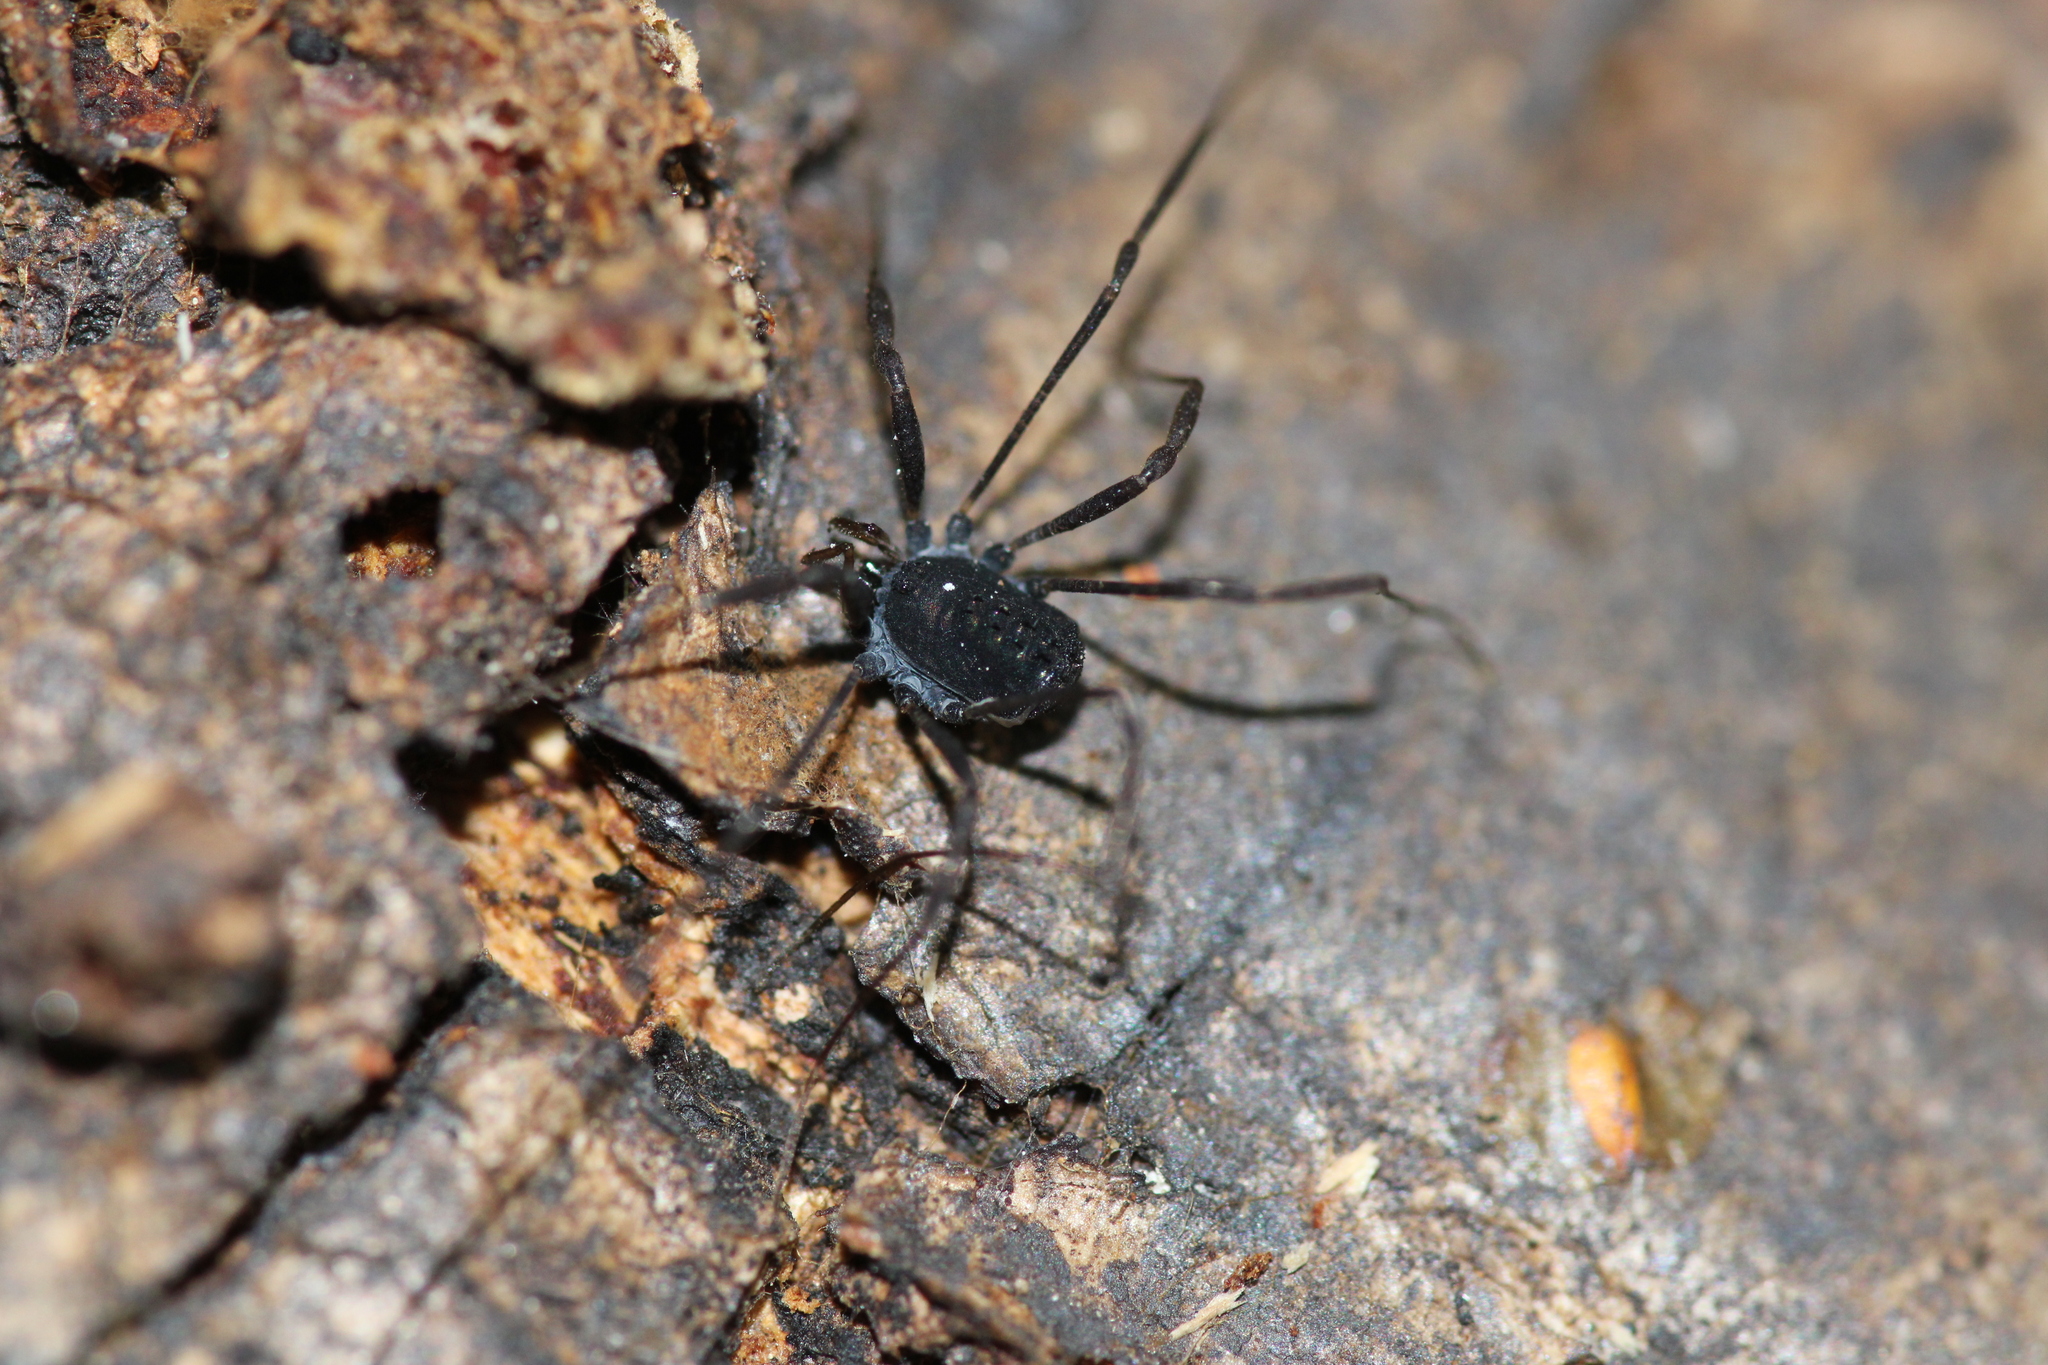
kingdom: Animalia
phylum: Arthropoda
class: Arachnida
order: Opiliones
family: Nemastomatidae
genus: Histricostoma
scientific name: Histricostoma dentipalpe
